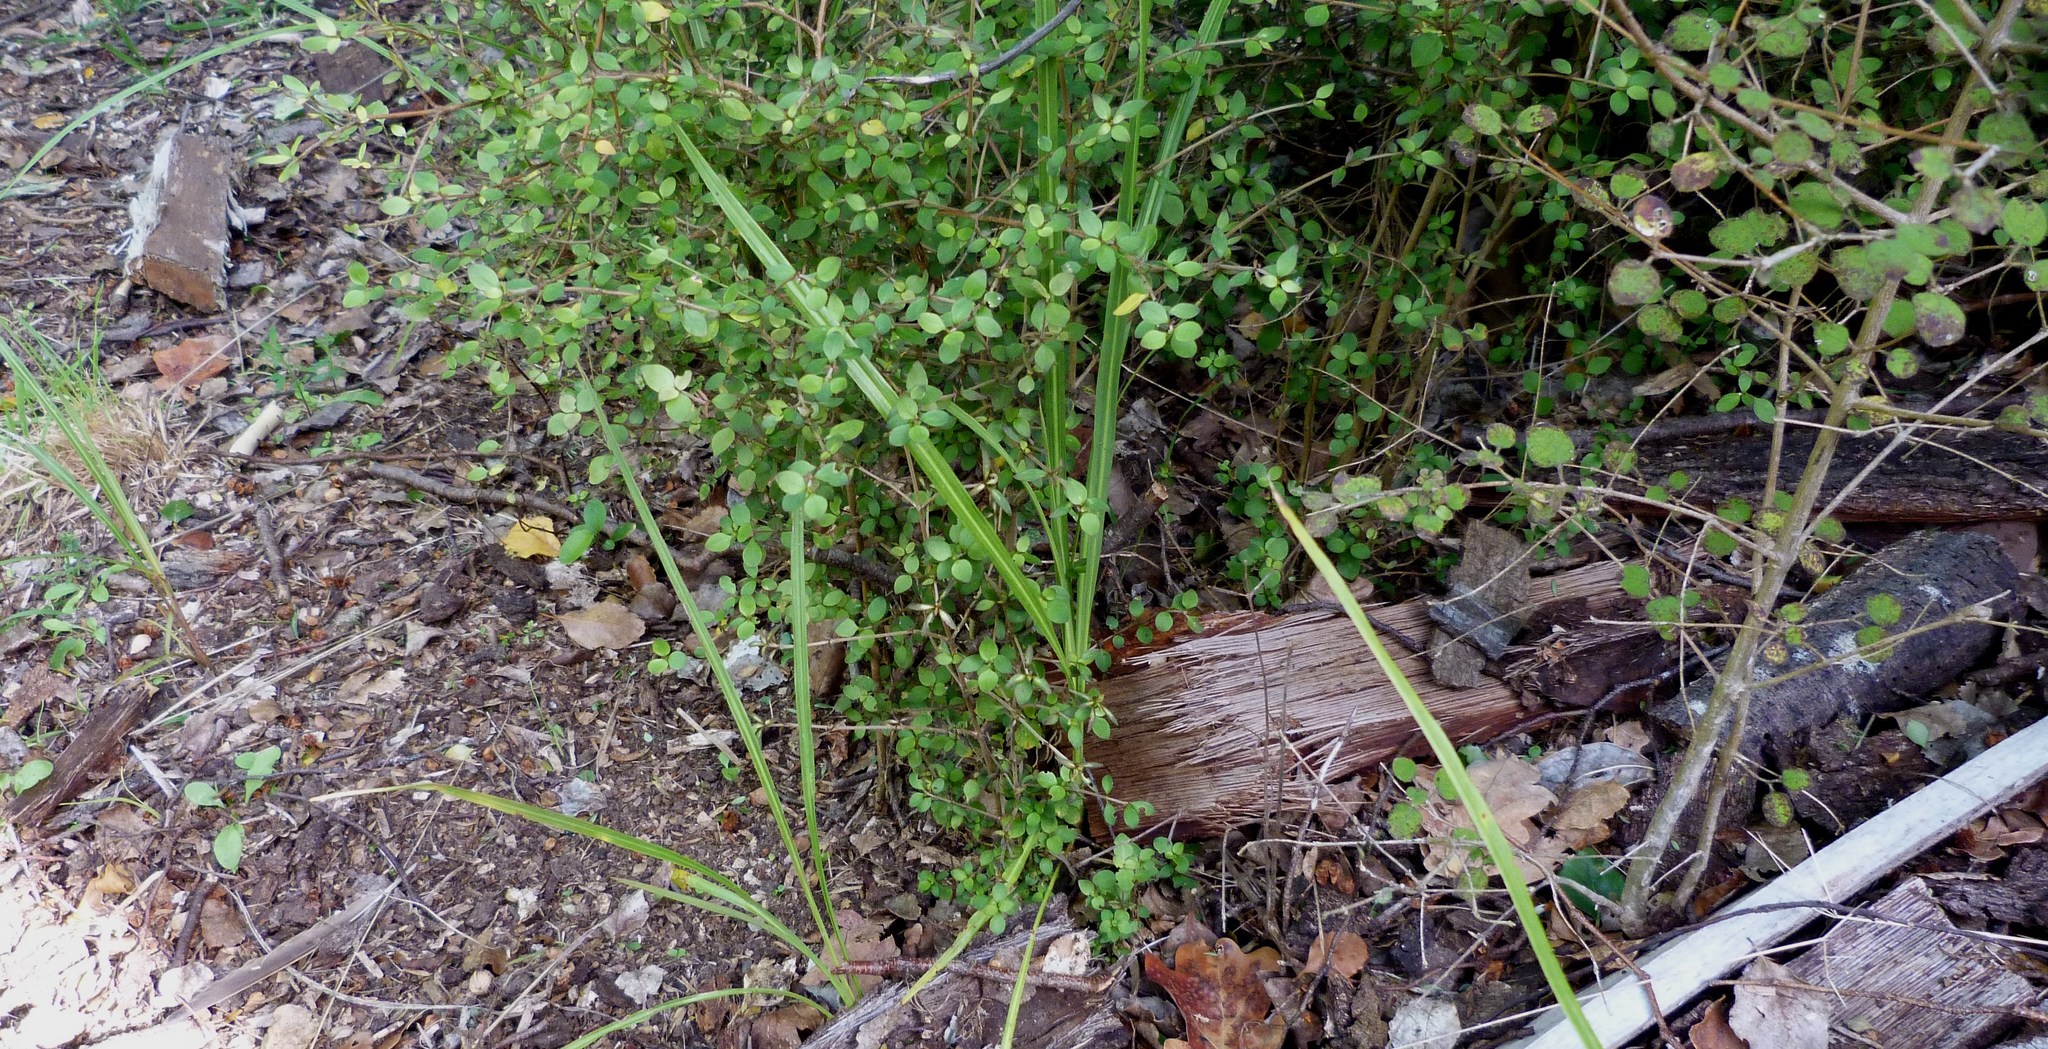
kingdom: Plantae
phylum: Tracheophyta
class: Liliopsida
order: Asparagales
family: Asparagaceae
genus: Cordyline
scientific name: Cordyline australis
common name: Cabbage-palm
